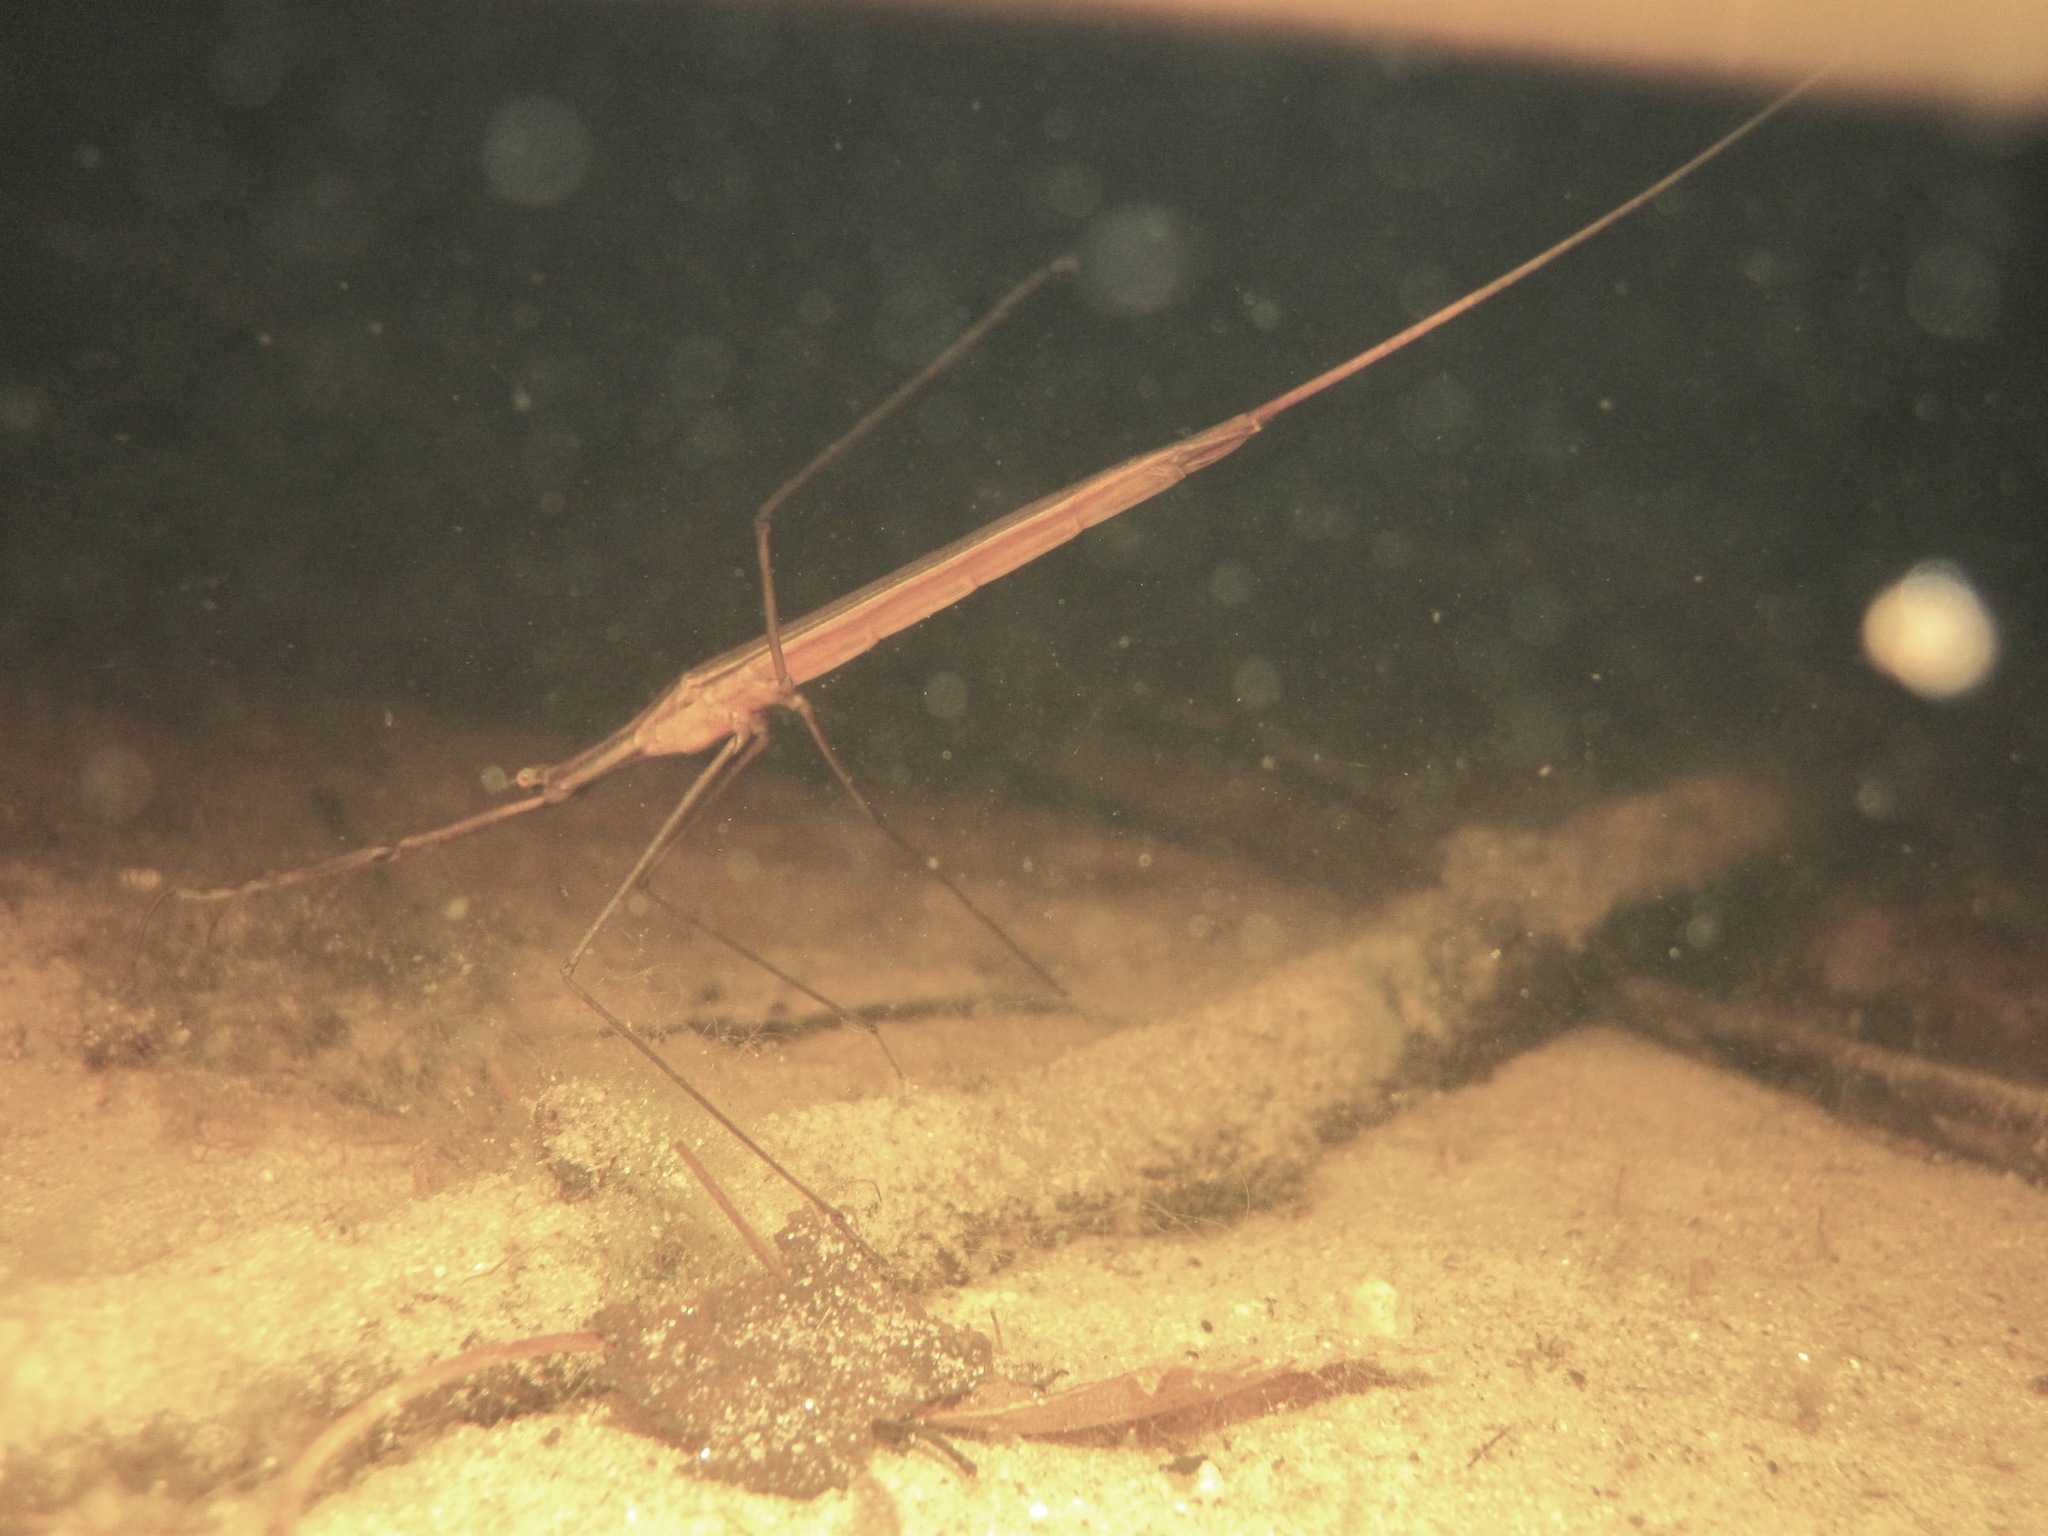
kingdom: Animalia
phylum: Arthropoda
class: Insecta
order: Hemiptera
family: Nepidae
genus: Ranatra
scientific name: Ranatra linearis
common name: Water stick insect
